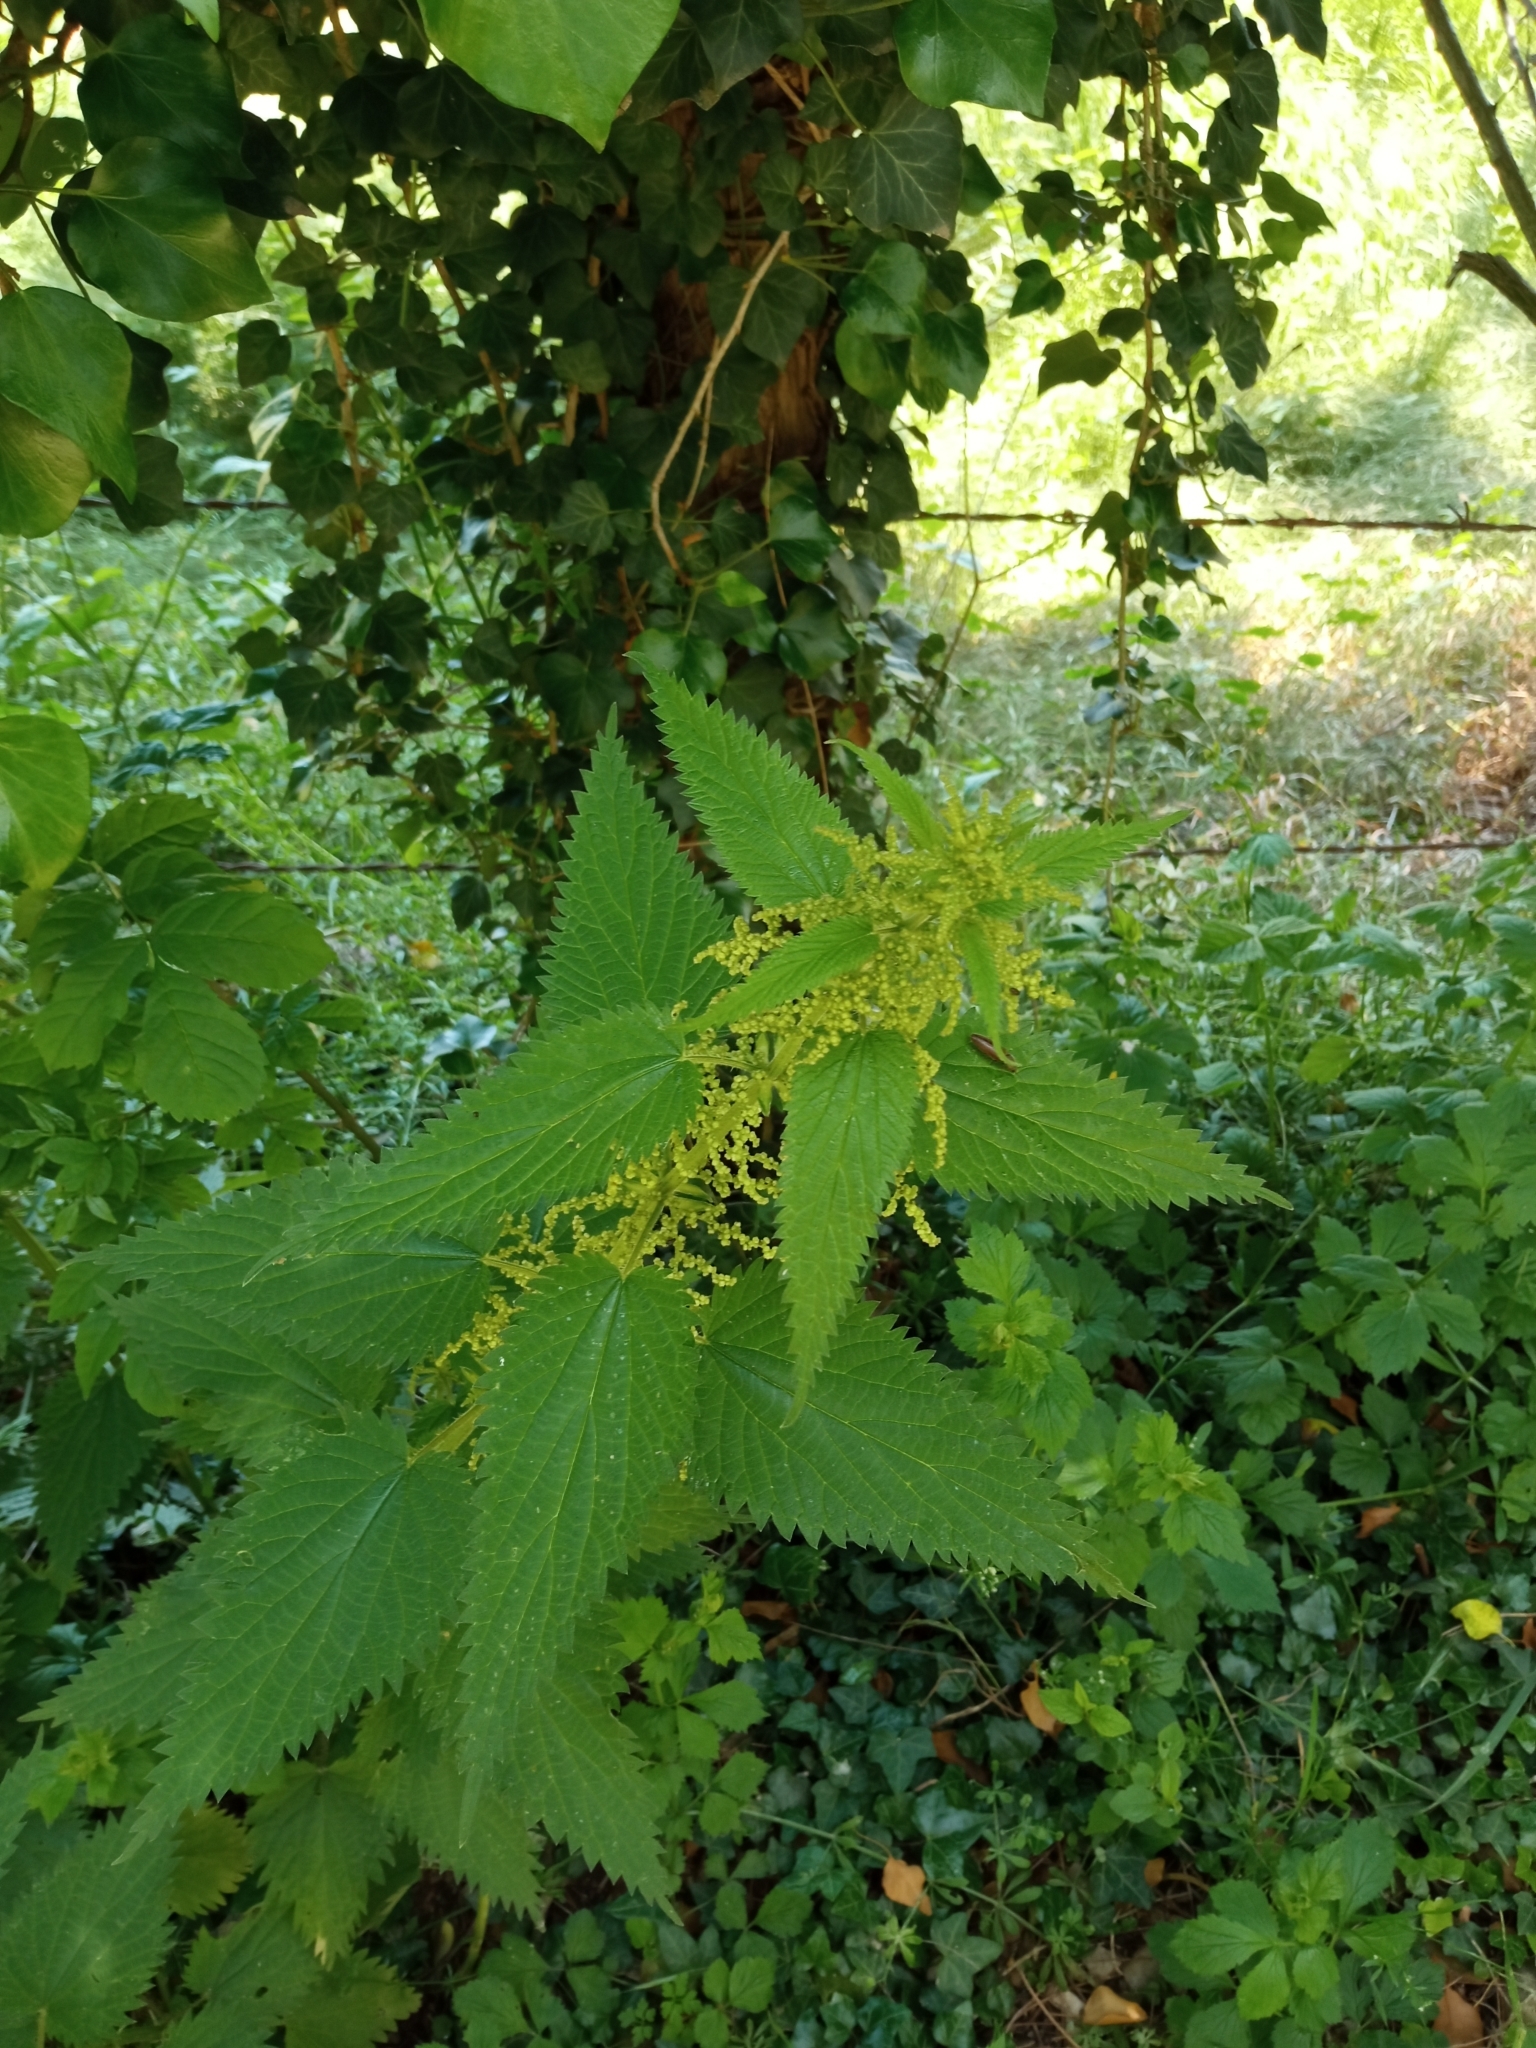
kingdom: Plantae
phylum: Tracheophyta
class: Magnoliopsida
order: Rosales
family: Urticaceae
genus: Urtica
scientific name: Urtica dioica
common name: Common nettle
